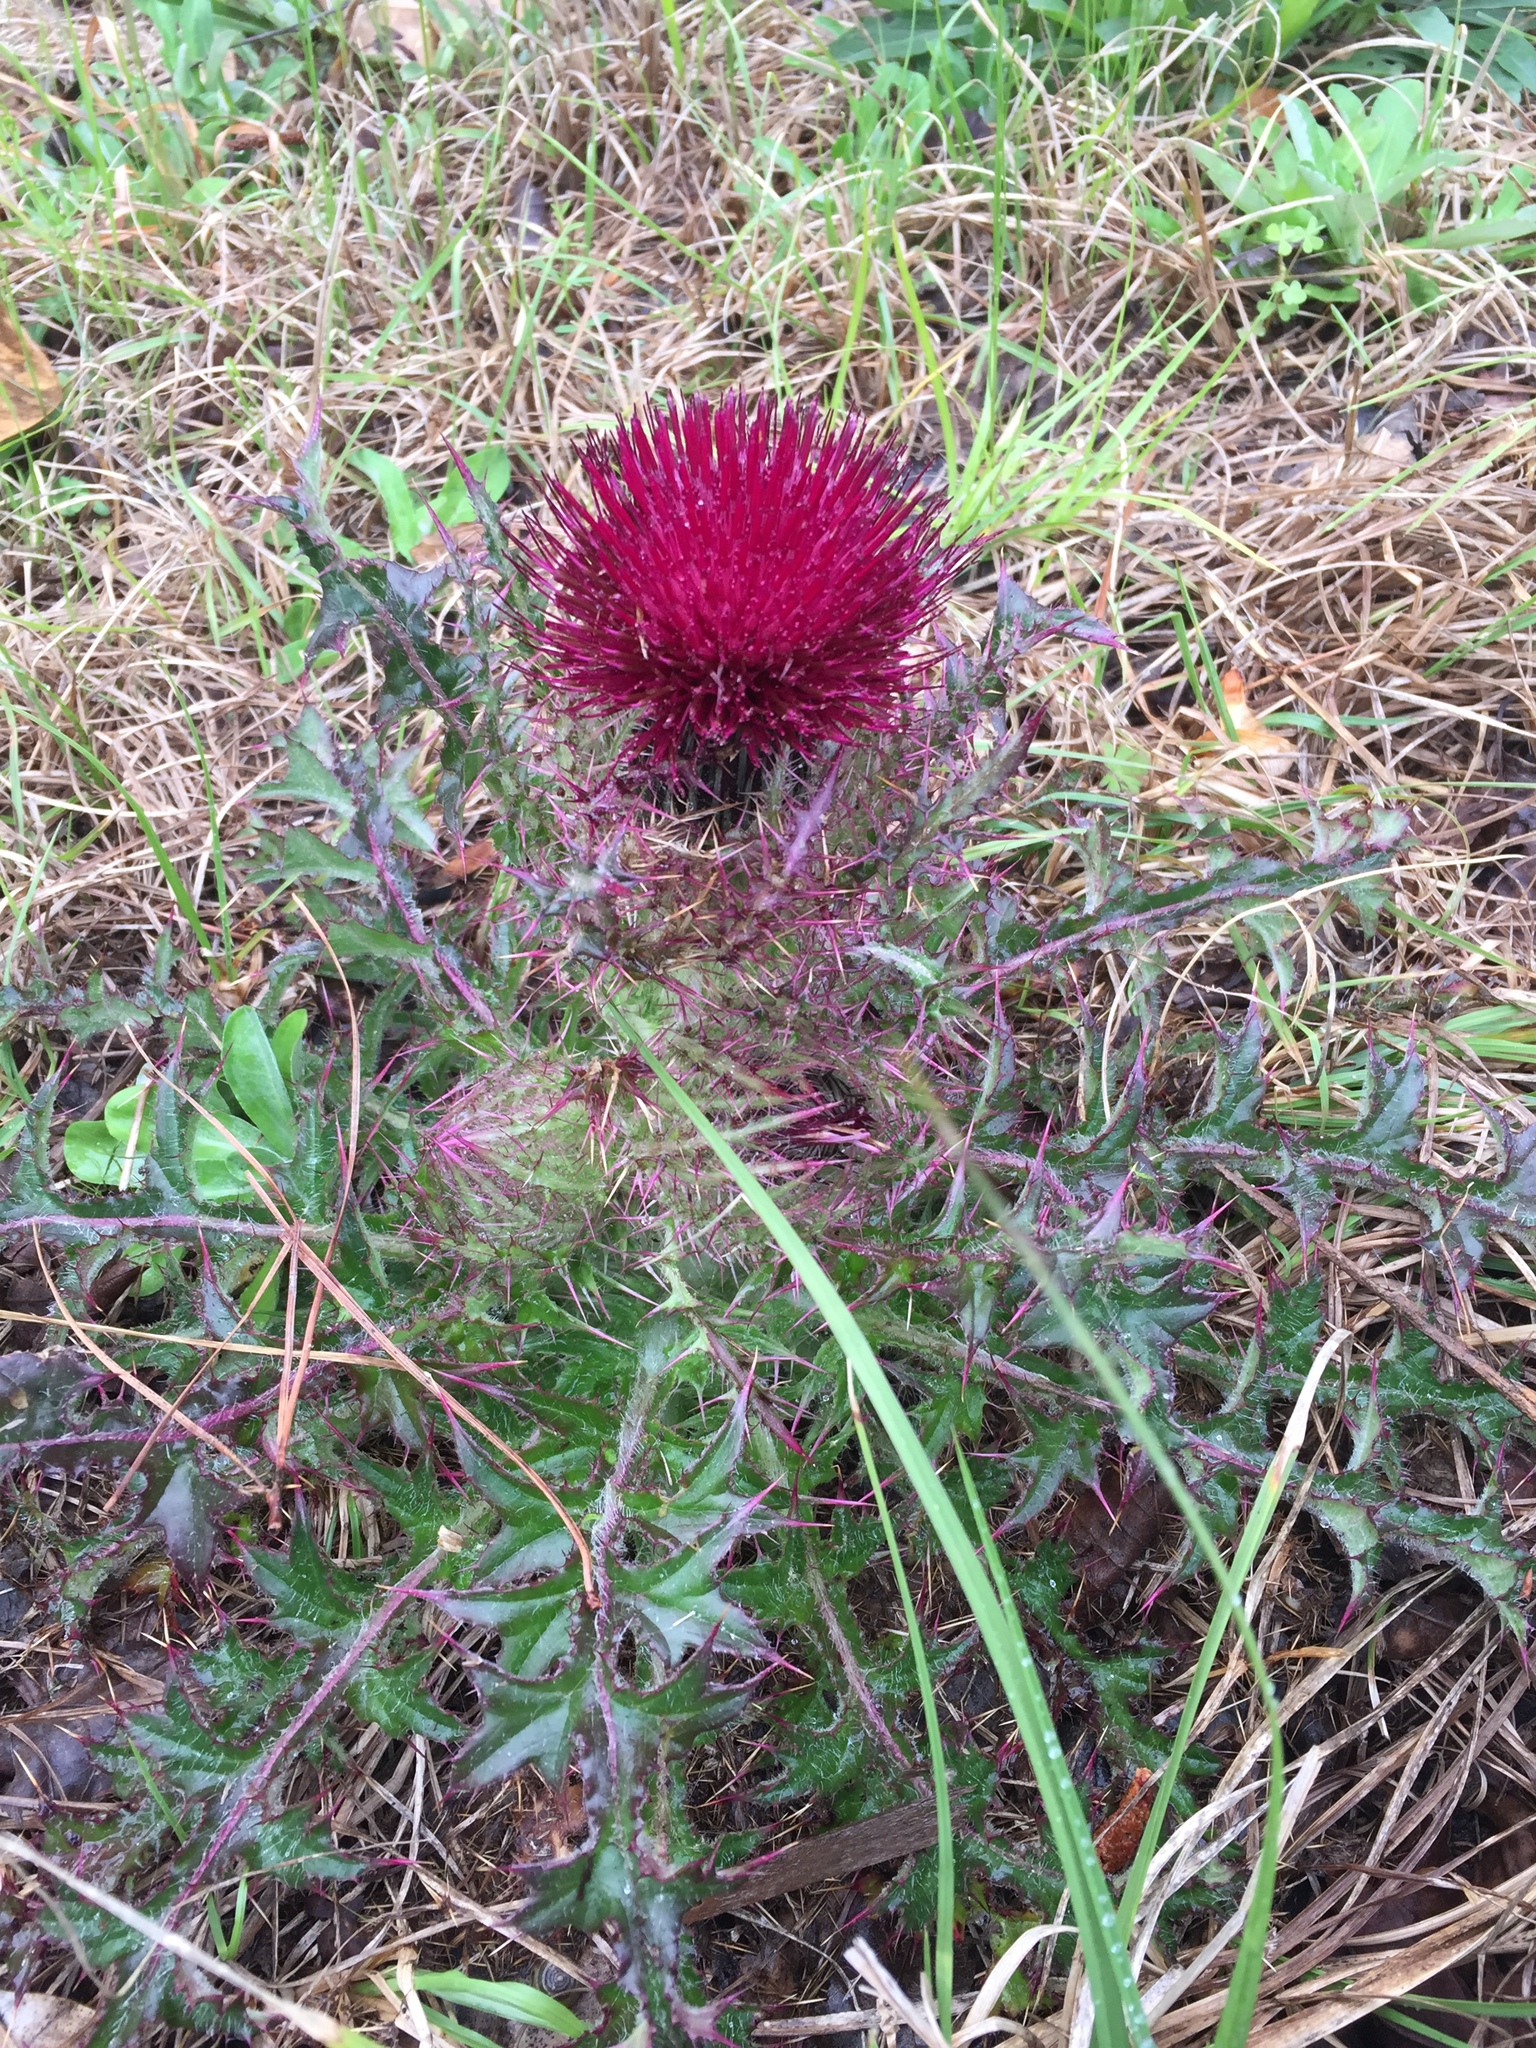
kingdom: Plantae
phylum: Tracheophyta
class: Magnoliopsida
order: Asterales
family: Asteraceae
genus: Cirsium
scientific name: Cirsium horridulum
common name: Bristly thistle
